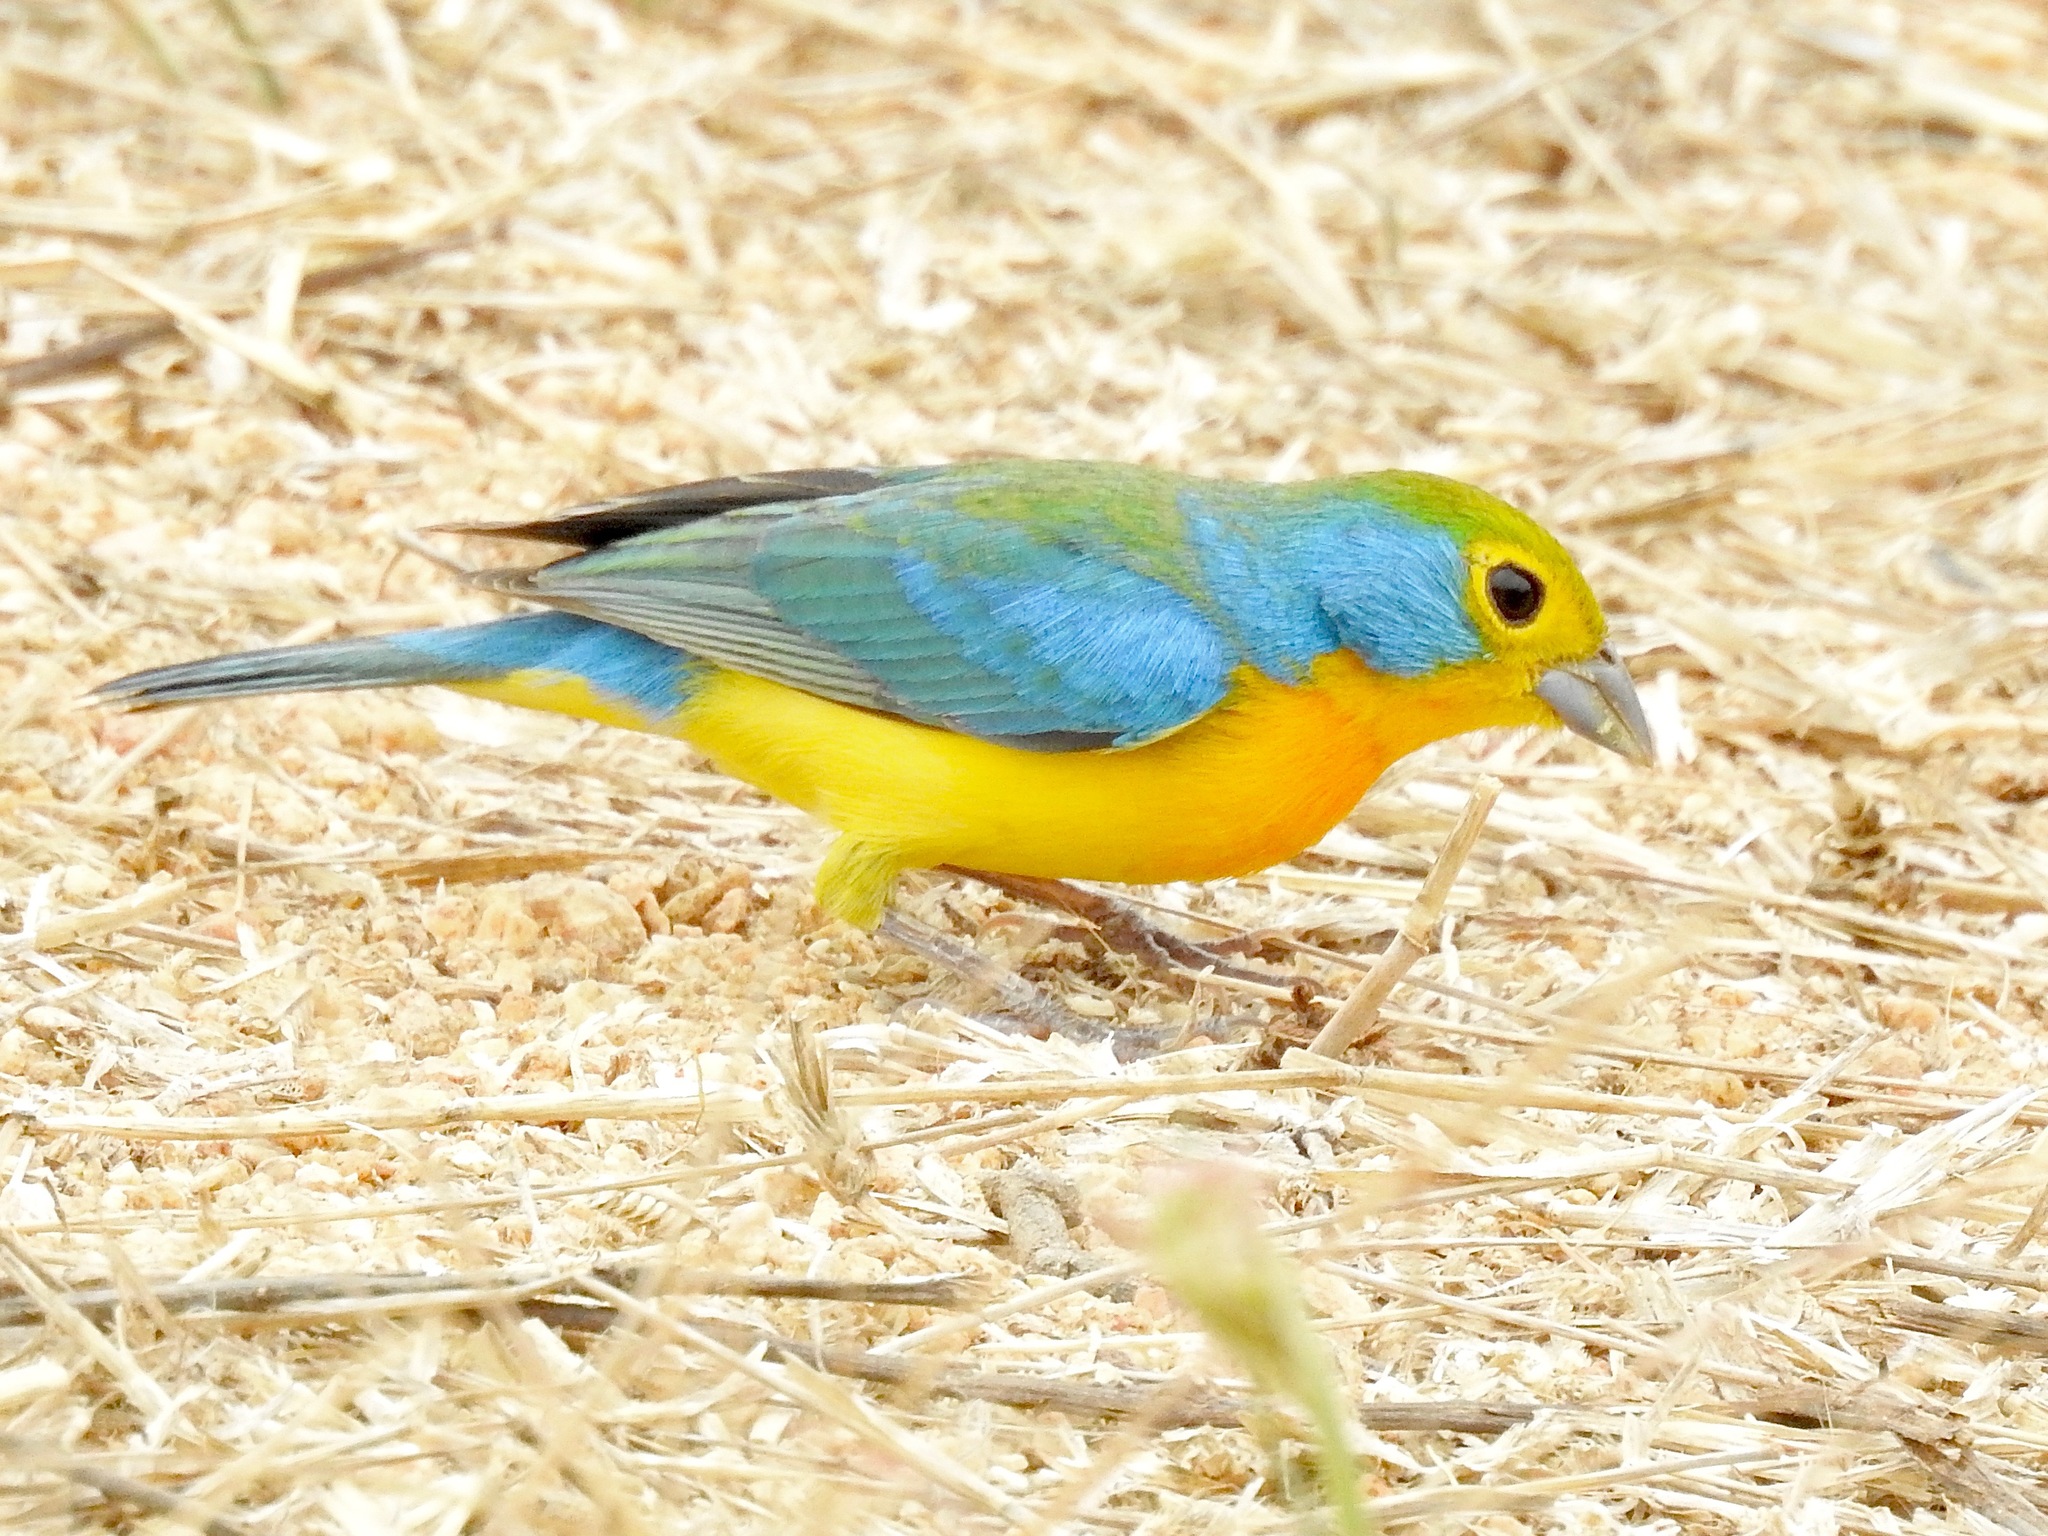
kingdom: Animalia
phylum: Chordata
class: Aves
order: Passeriformes
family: Cardinalidae
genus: Passerina
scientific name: Passerina leclancherii
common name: Orange-breasted bunting
